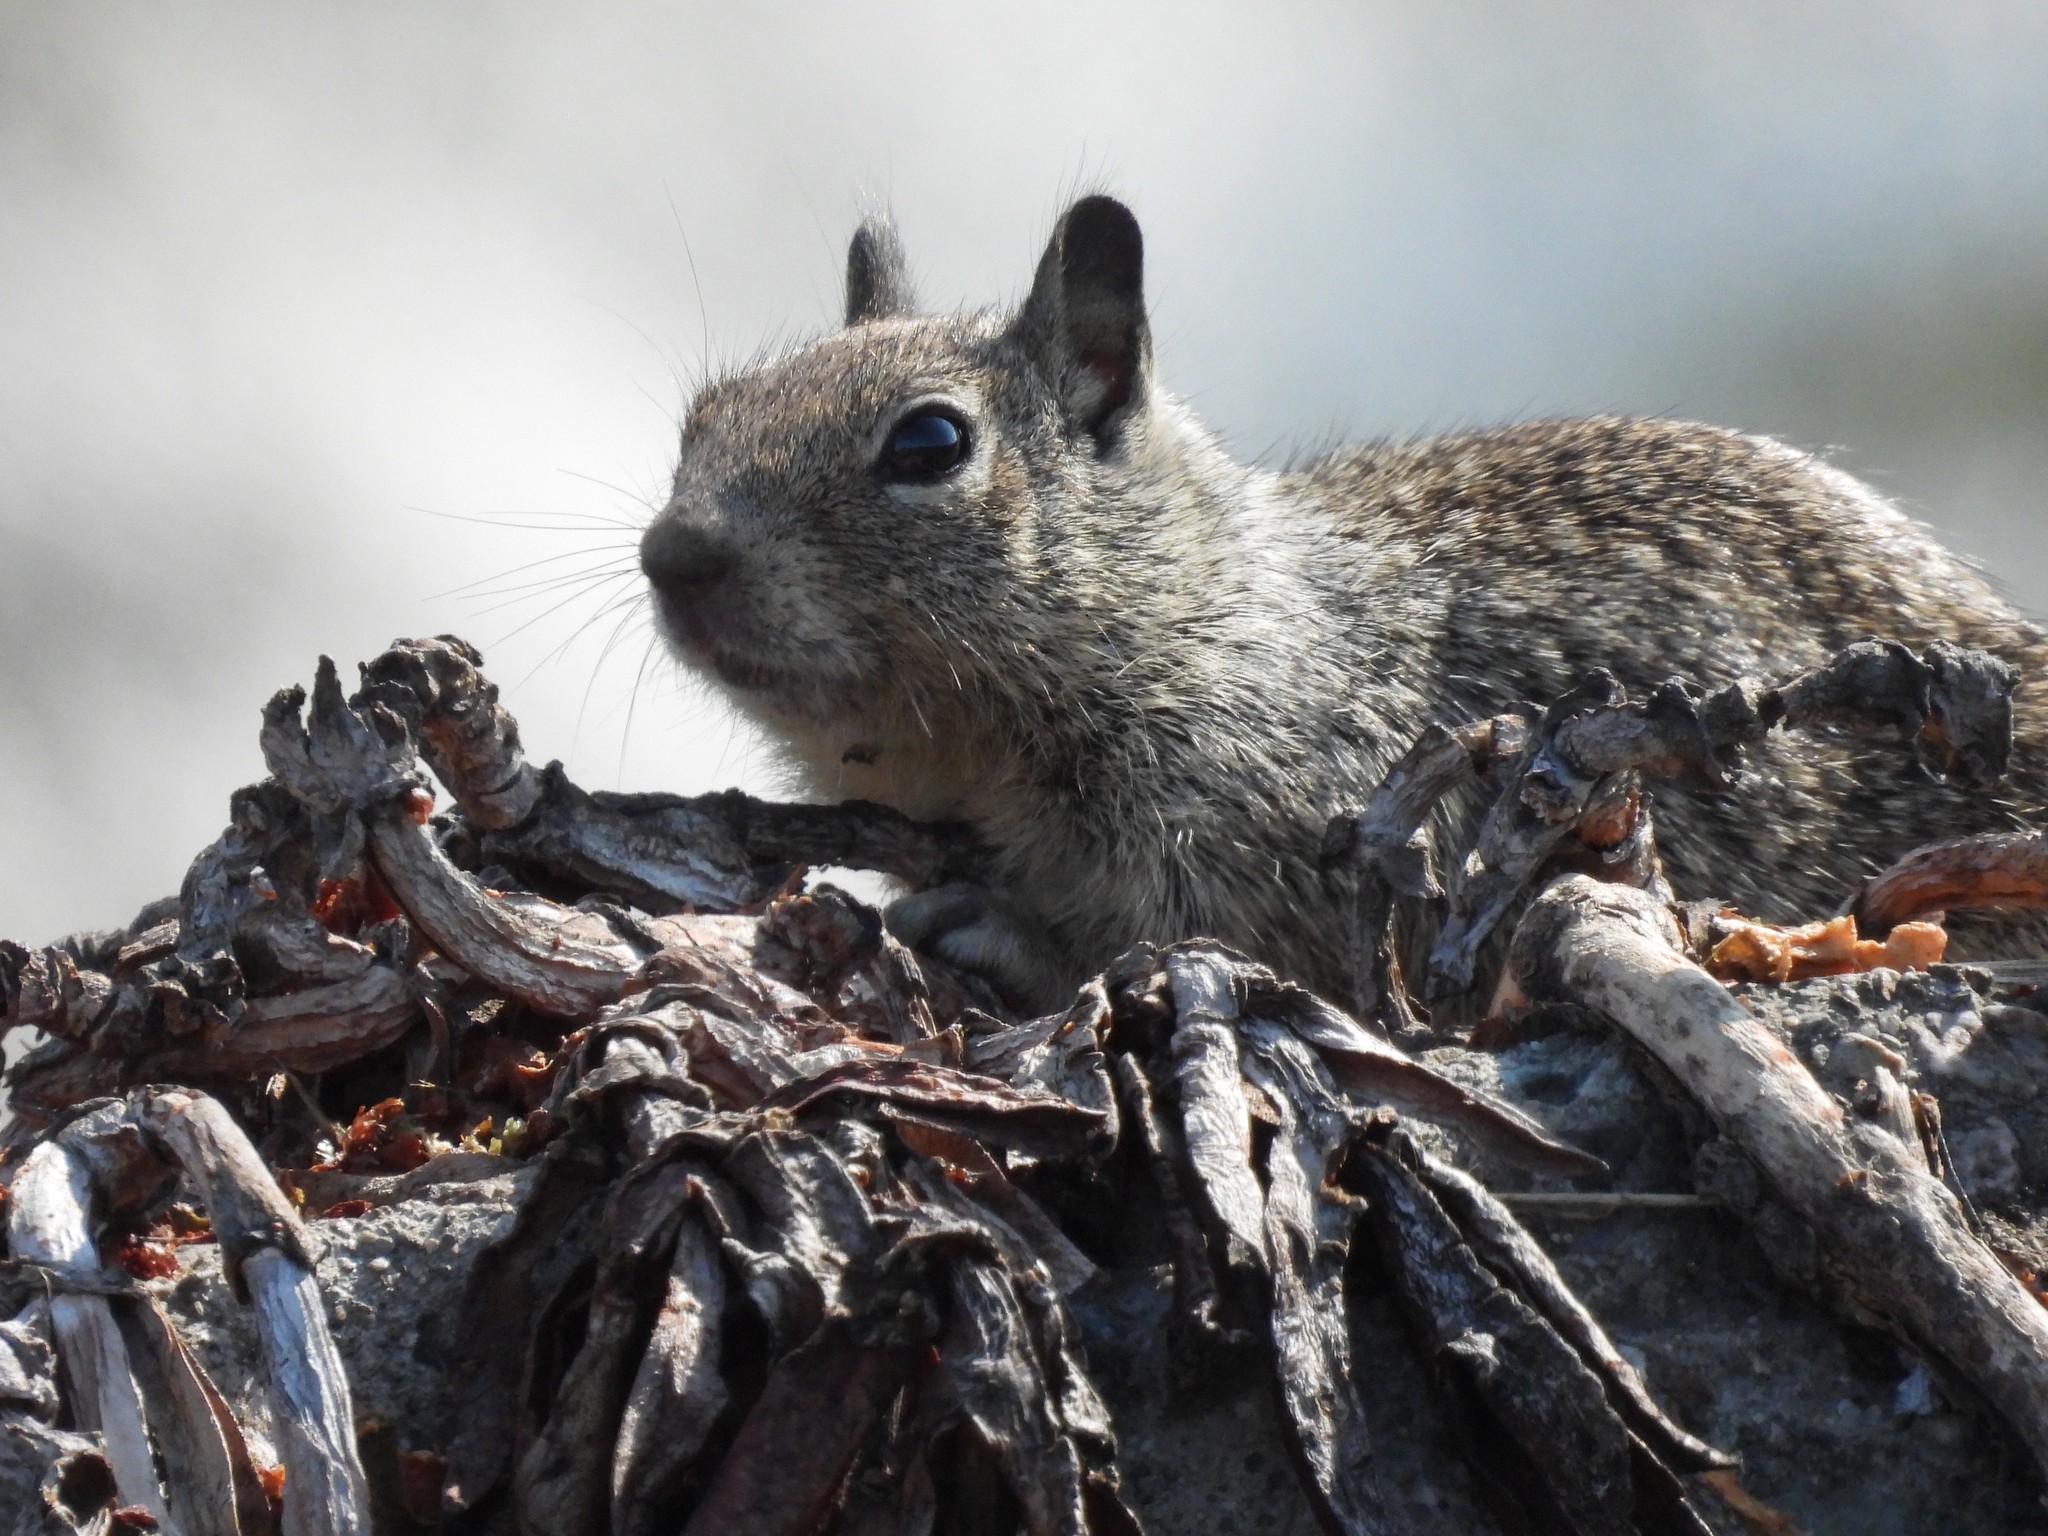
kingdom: Animalia
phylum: Chordata
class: Mammalia
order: Rodentia
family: Sciuridae
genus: Otospermophilus
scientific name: Otospermophilus beecheyi
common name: California ground squirrel
